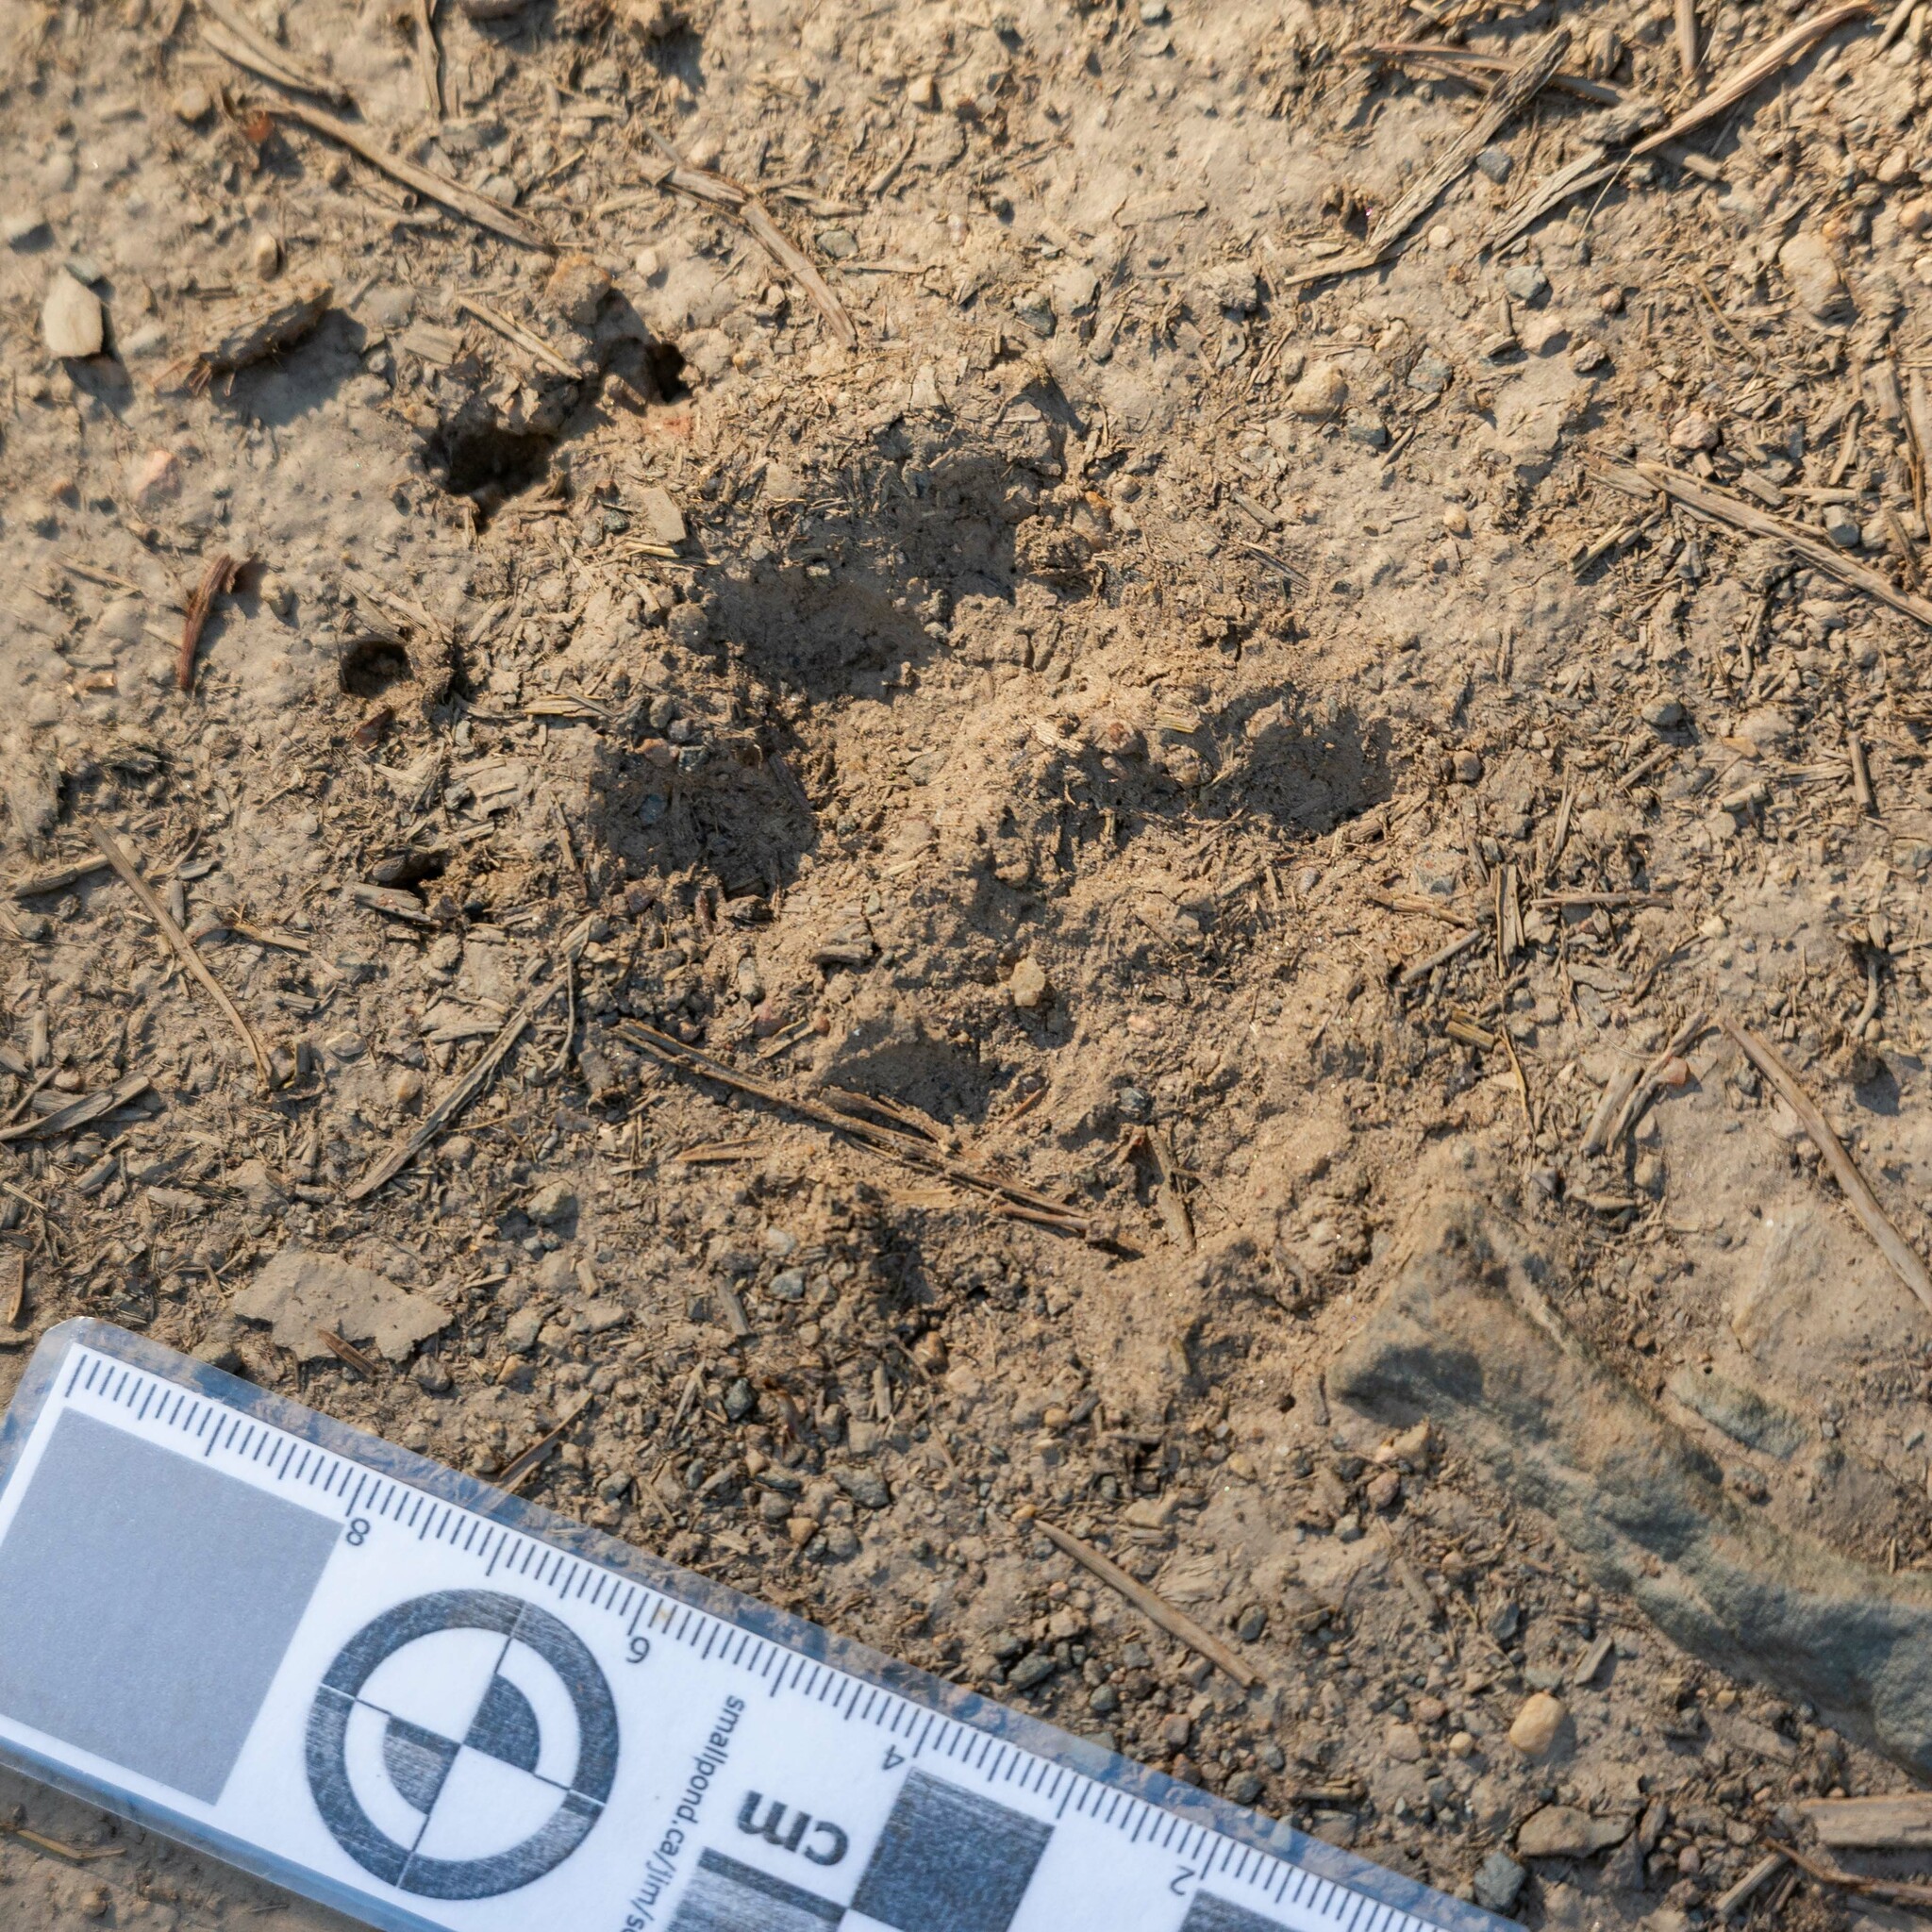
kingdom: Animalia
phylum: Chordata
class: Mammalia
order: Carnivora
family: Mustelidae
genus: Meles
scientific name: Meles meles
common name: Eurasian badger
